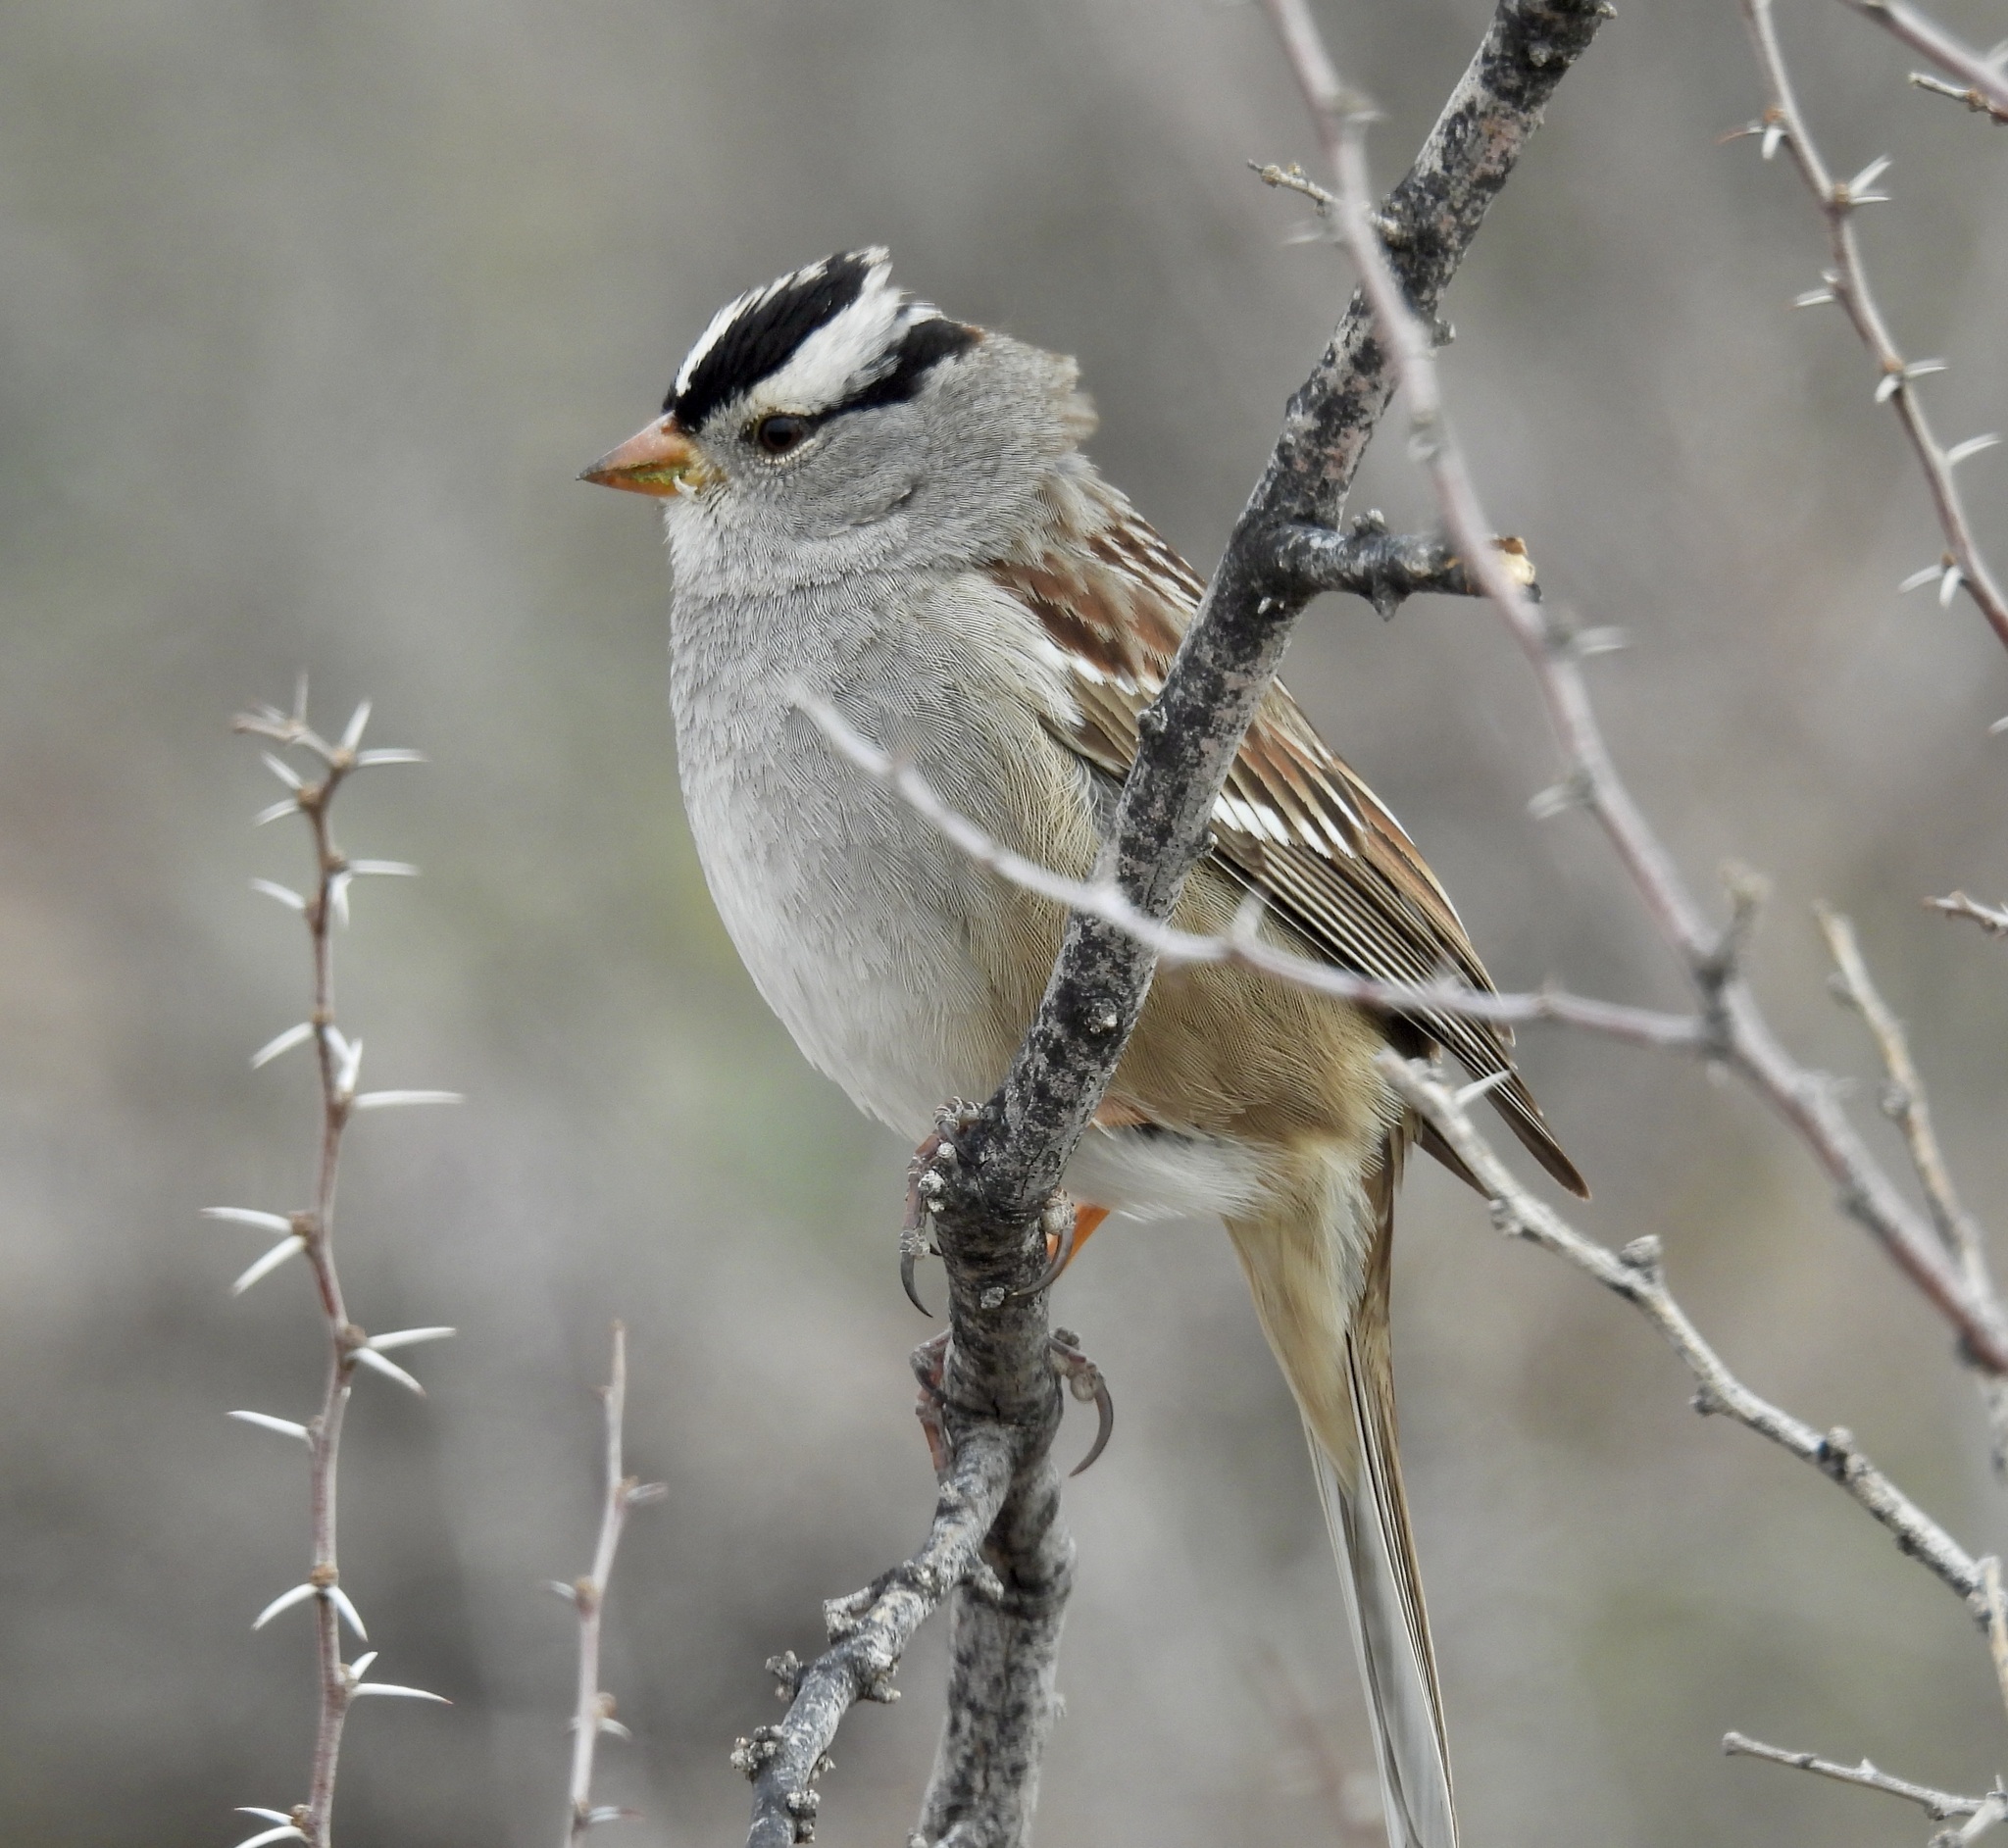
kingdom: Animalia
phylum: Chordata
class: Aves
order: Passeriformes
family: Passerellidae
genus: Zonotrichia
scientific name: Zonotrichia leucophrys
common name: White-crowned sparrow
